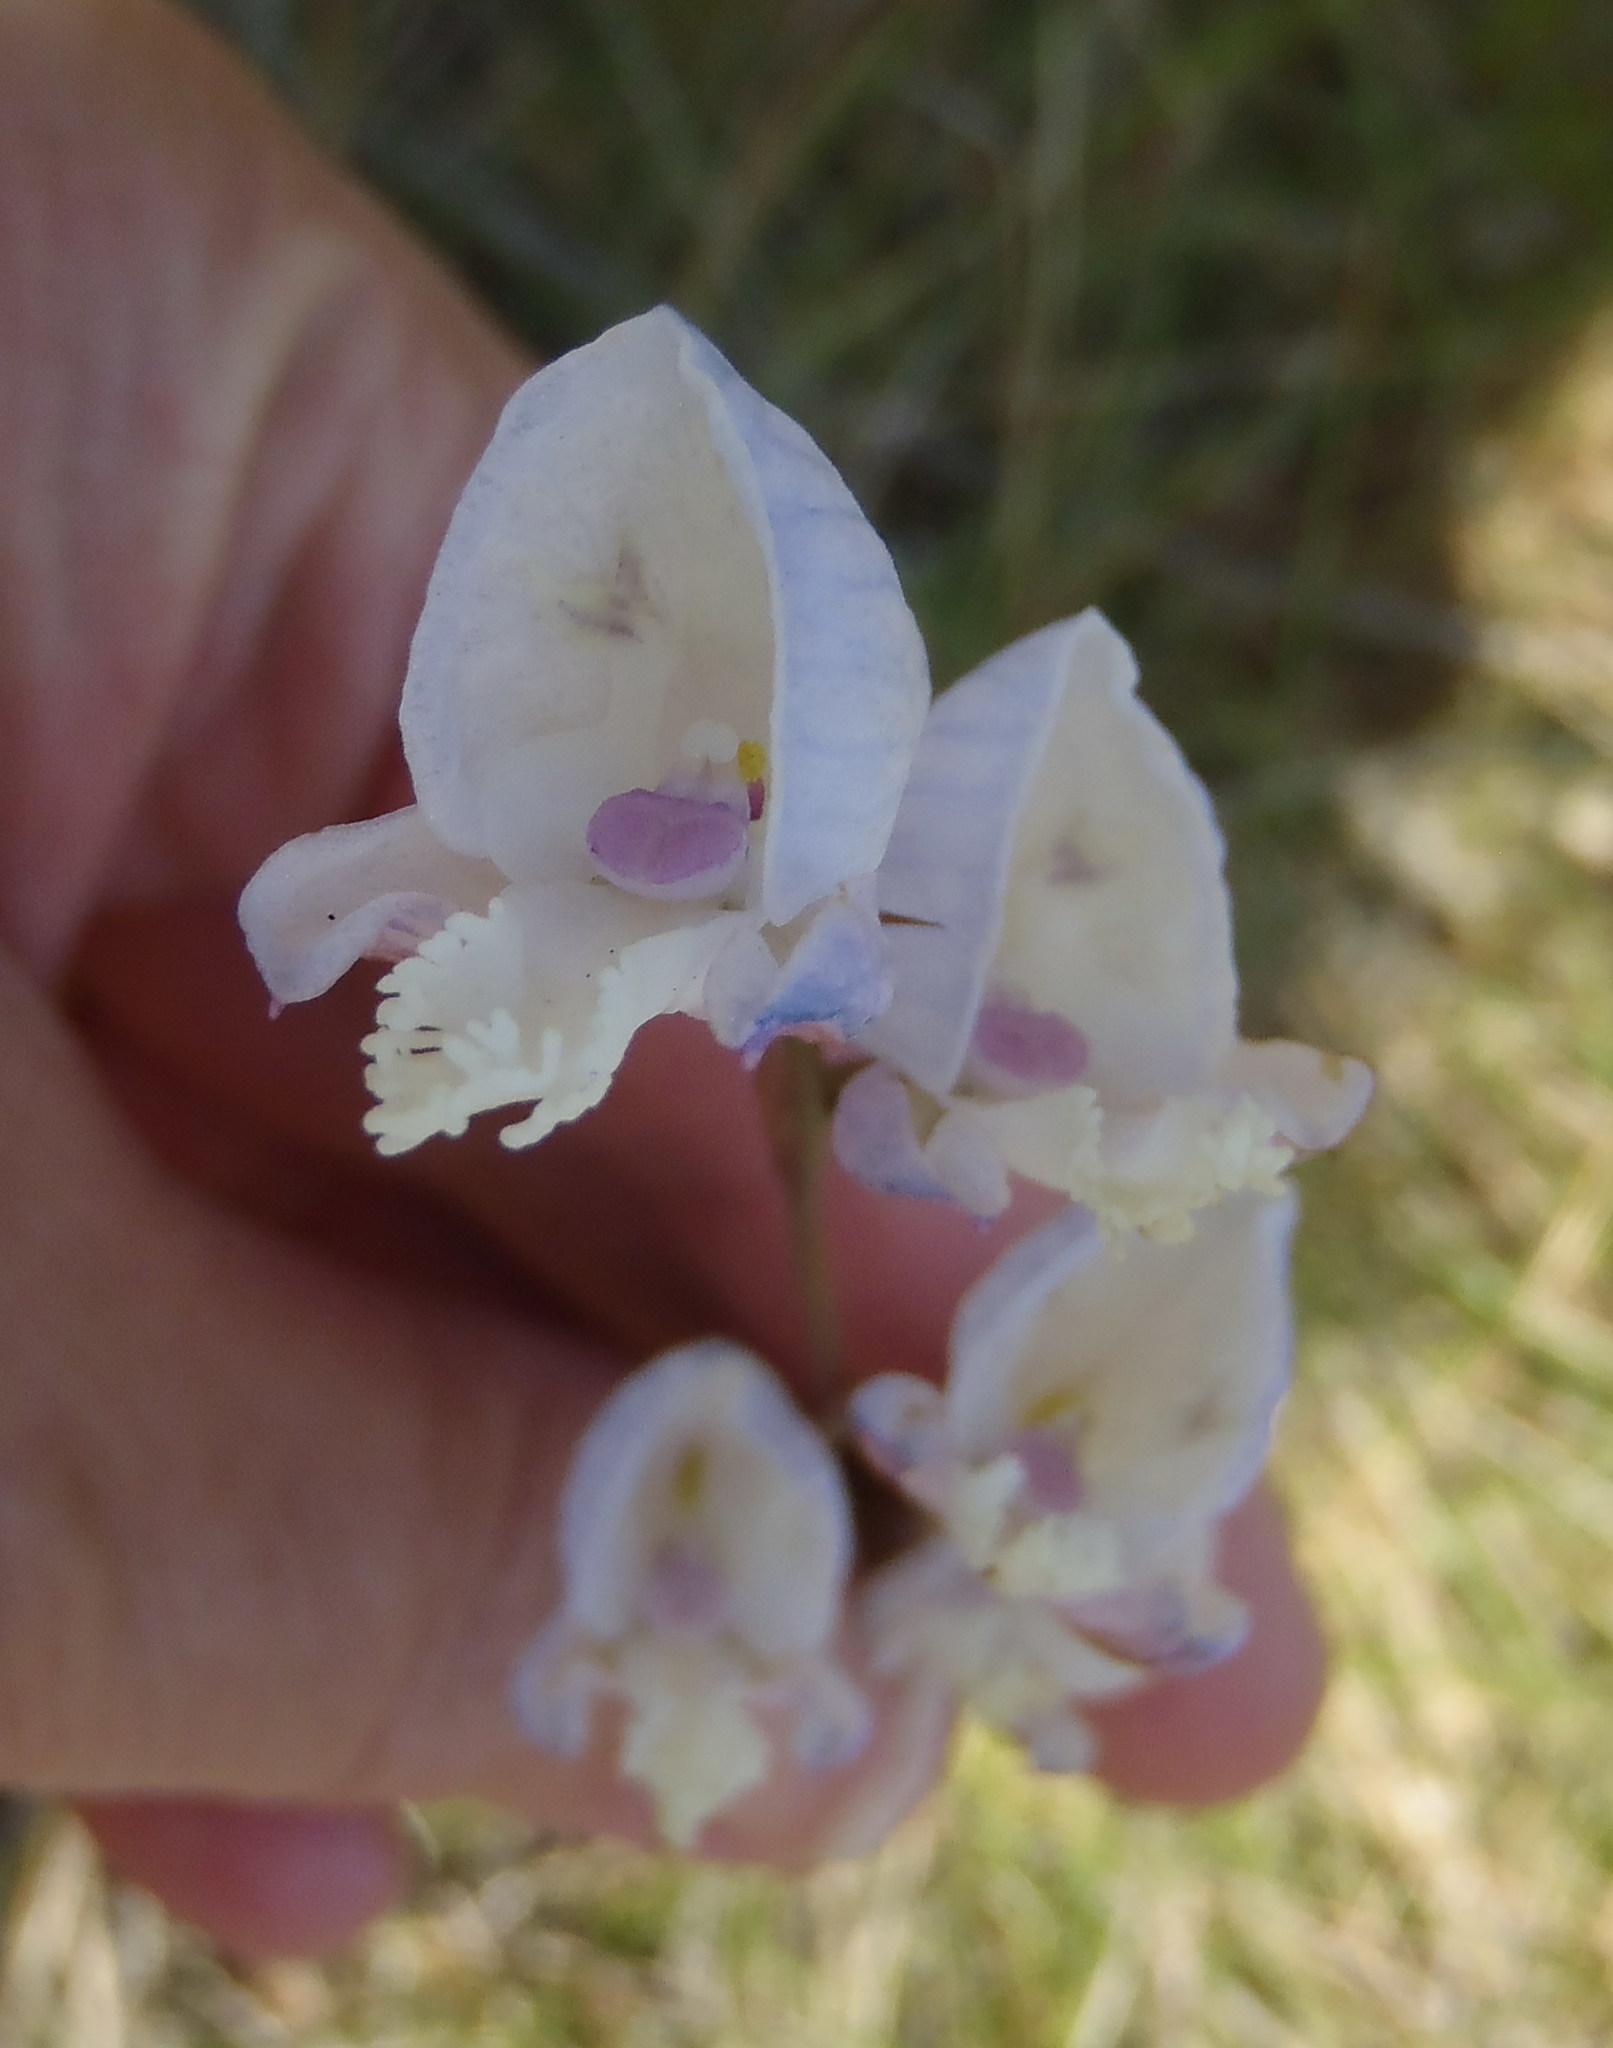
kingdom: Plantae
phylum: Tracheophyta
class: Liliopsida
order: Asparagales
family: Orchidaceae
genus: Disa
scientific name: Disa hians
